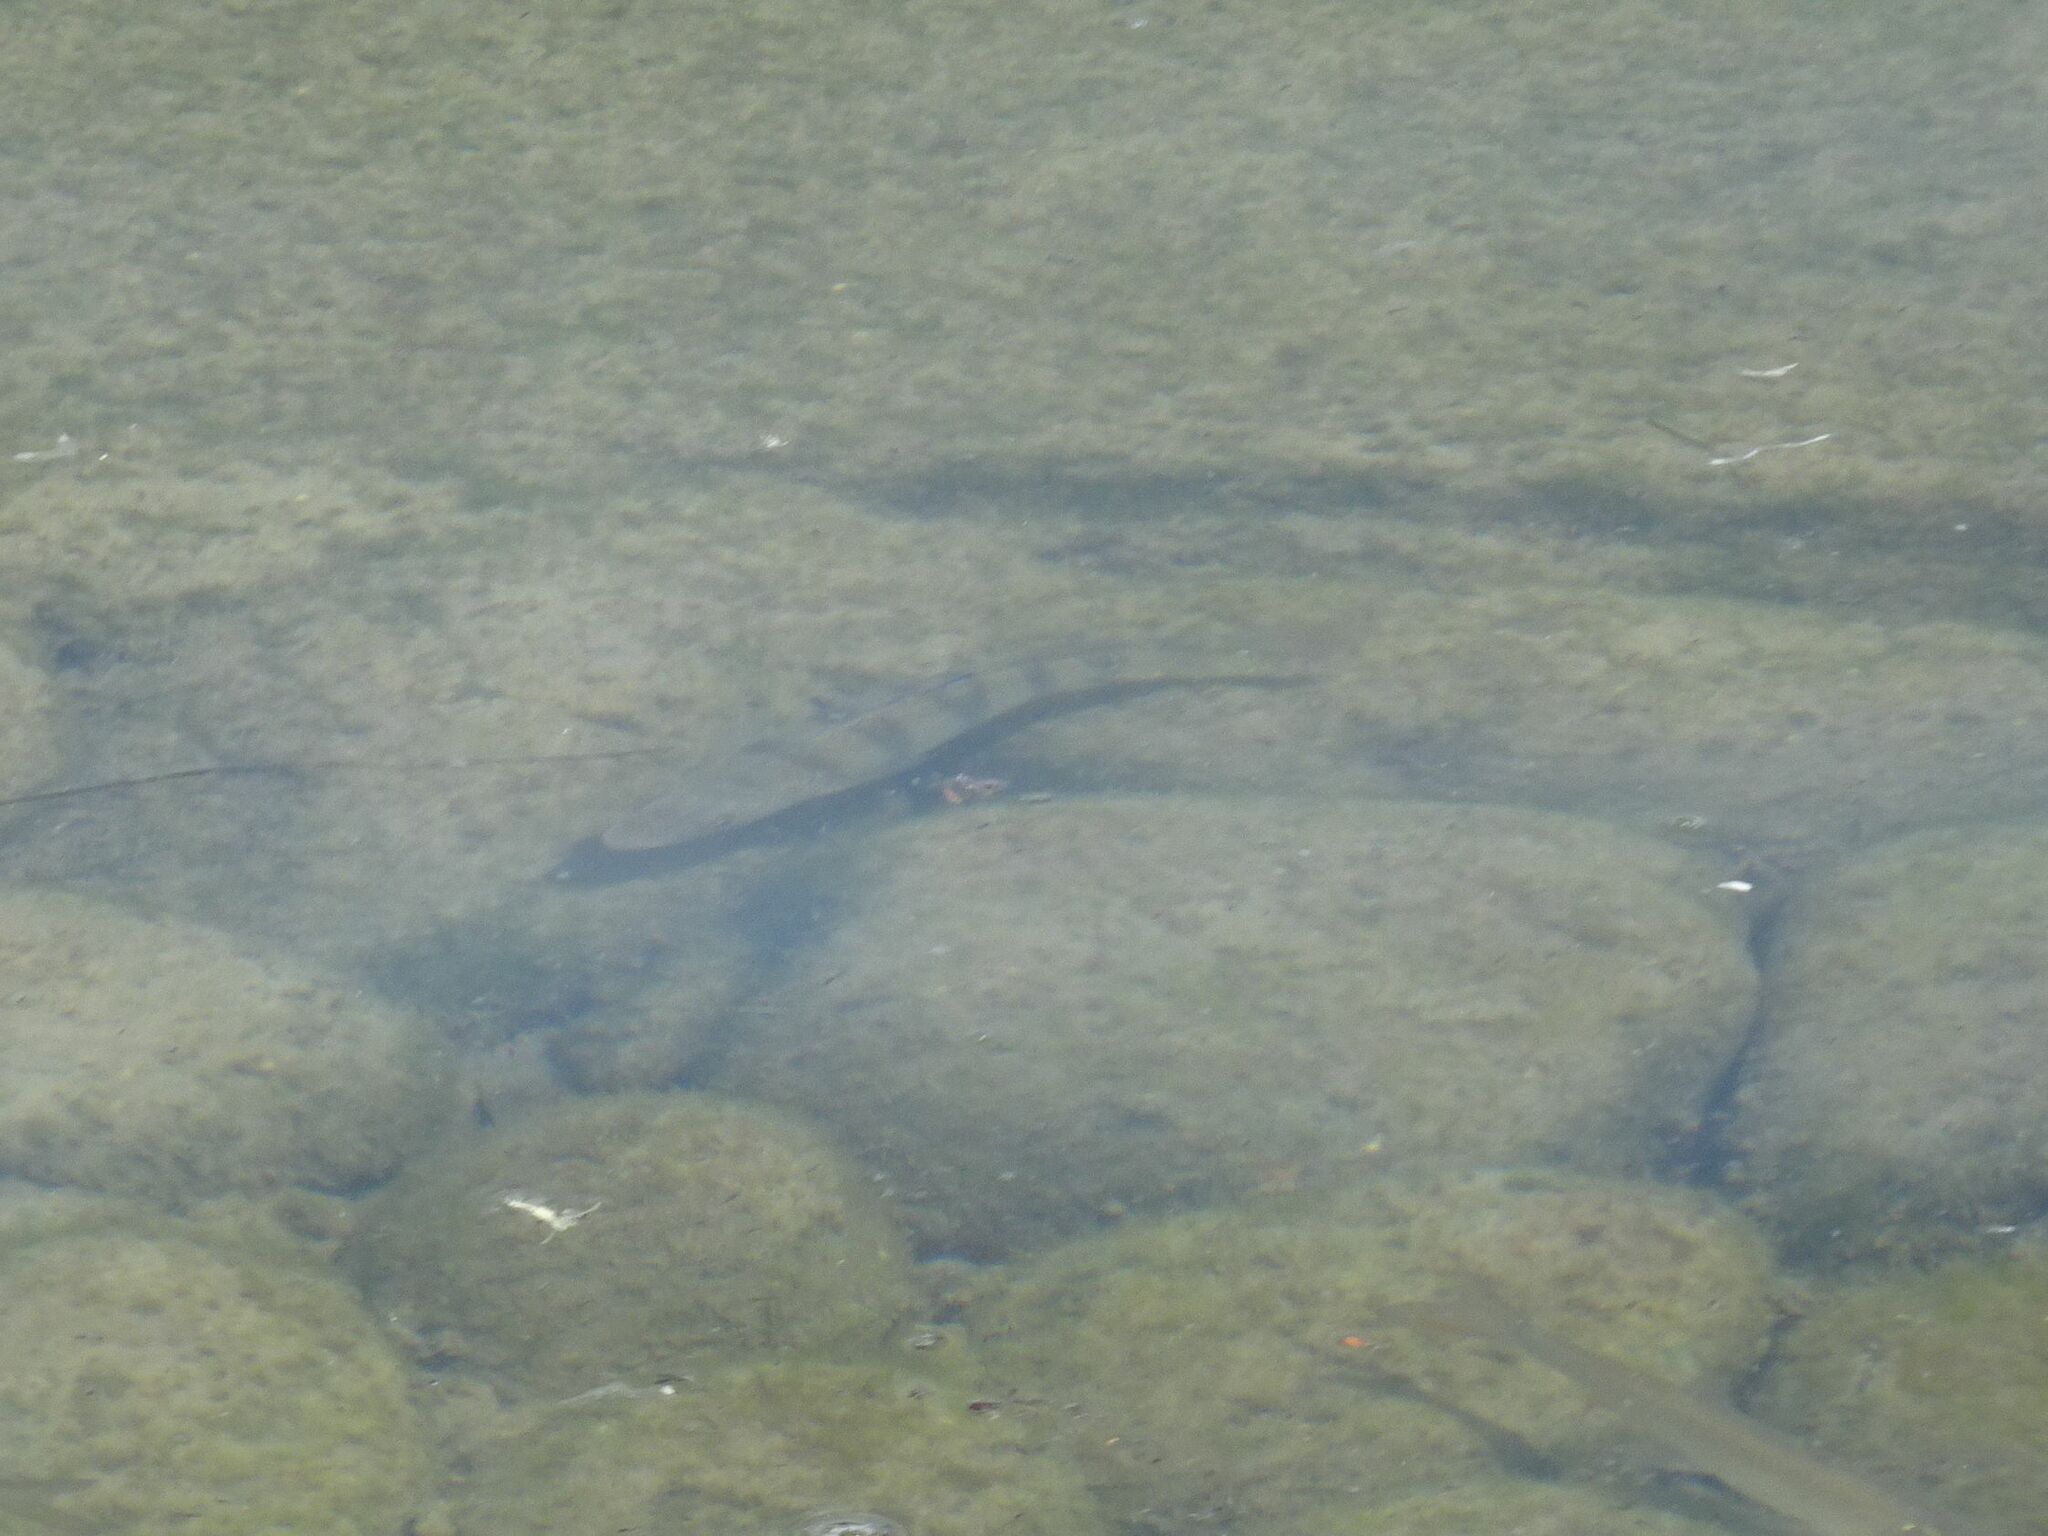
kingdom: Animalia
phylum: Chordata
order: Perciformes
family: Percidae
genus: Perca
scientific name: Perca fluviatilis
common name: Perch
